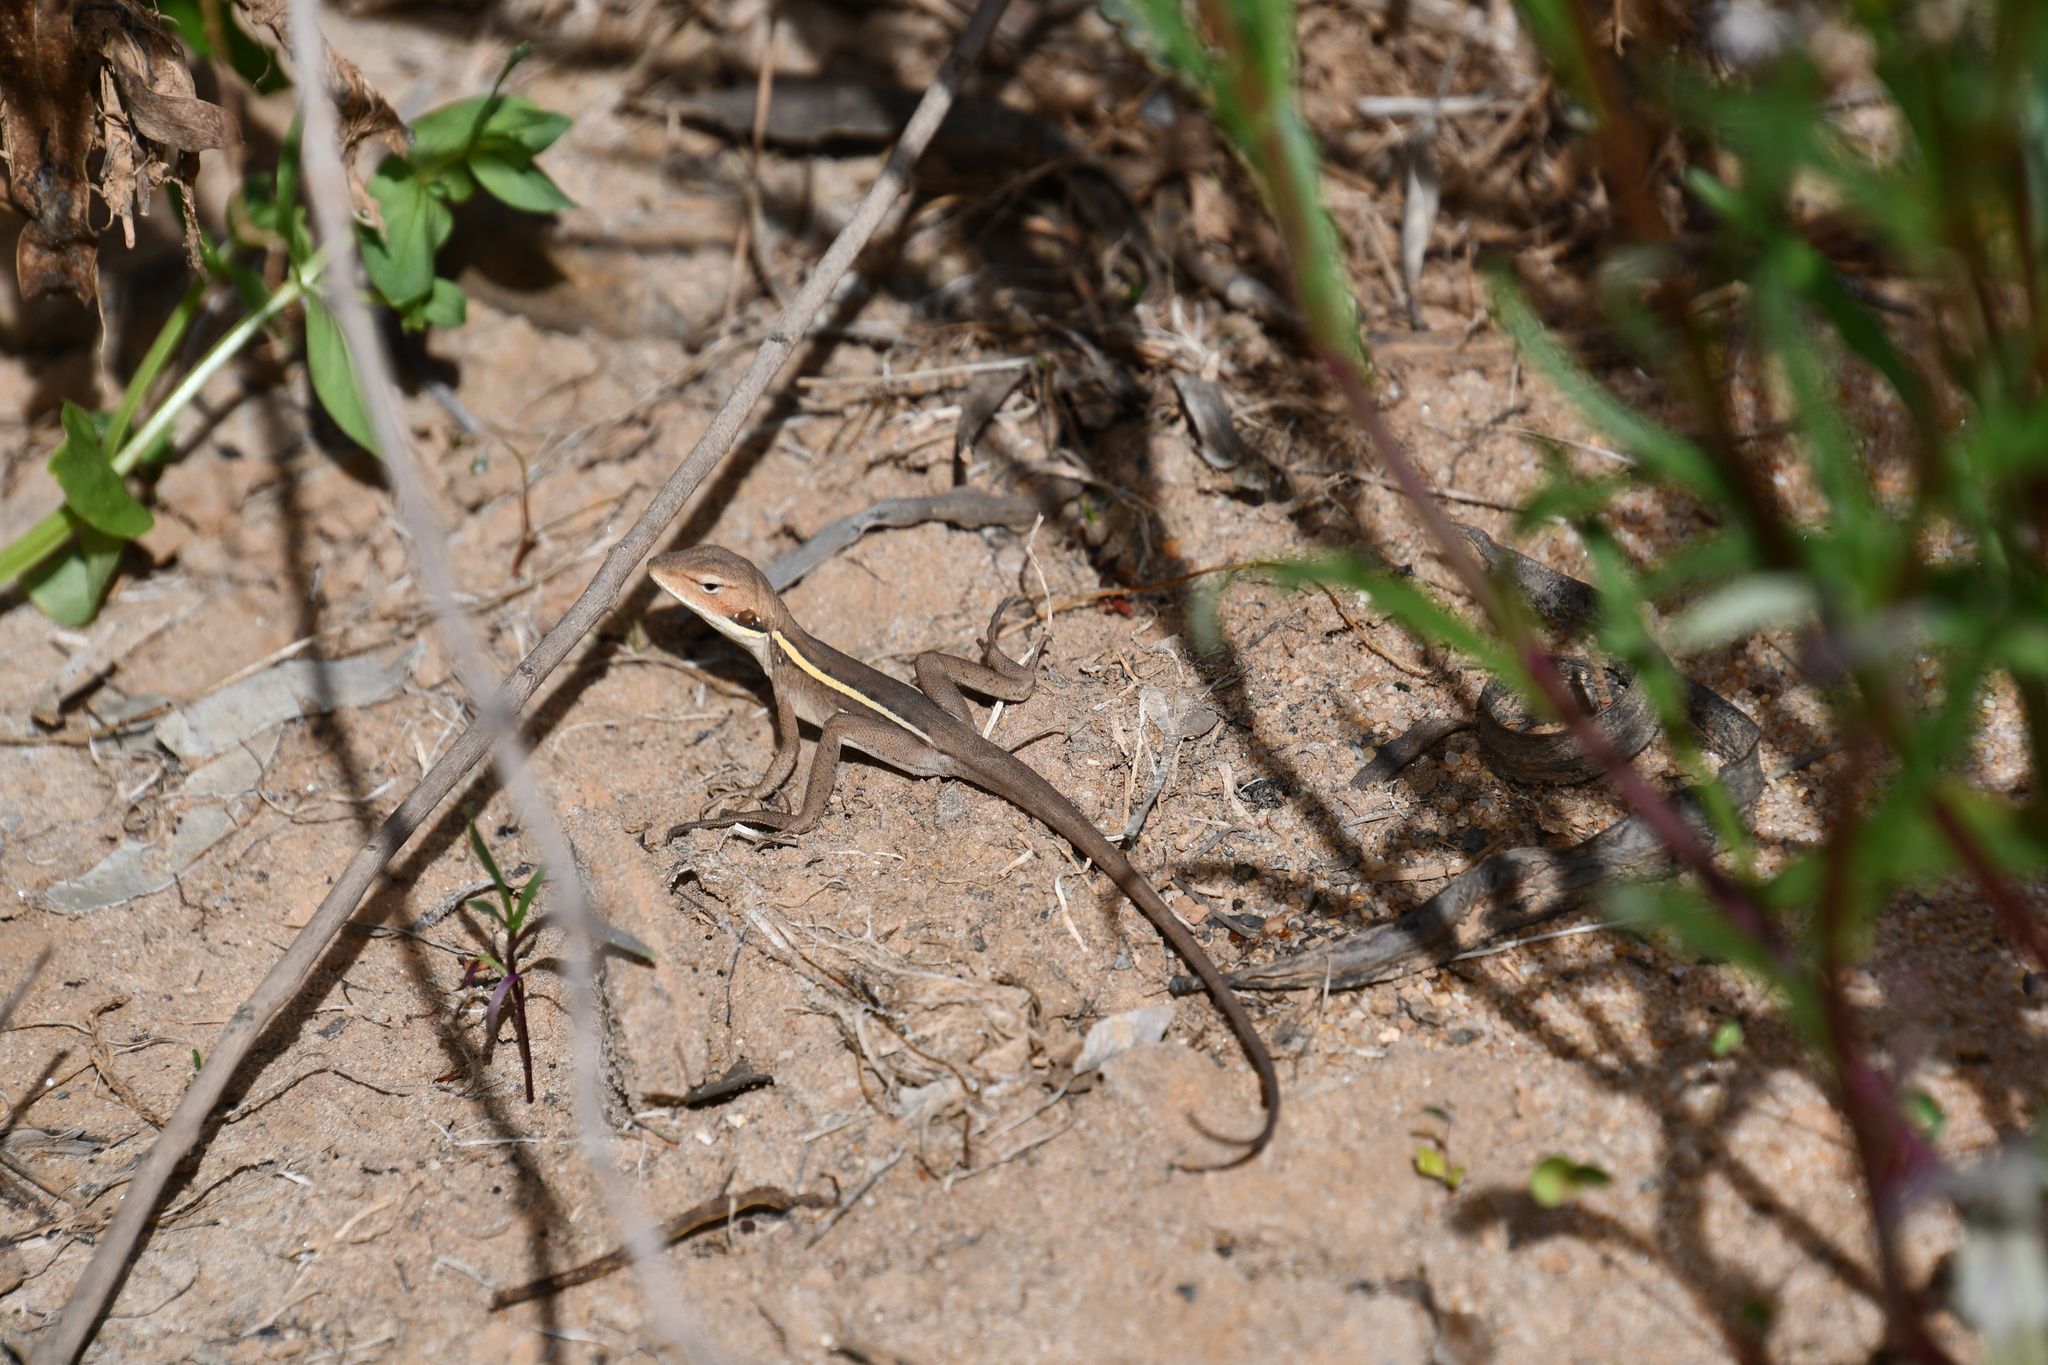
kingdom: Animalia
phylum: Chordata
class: Squamata
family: Agamidae
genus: Gowidon
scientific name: Gowidon longirostris
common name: Long-nosed water dragon
